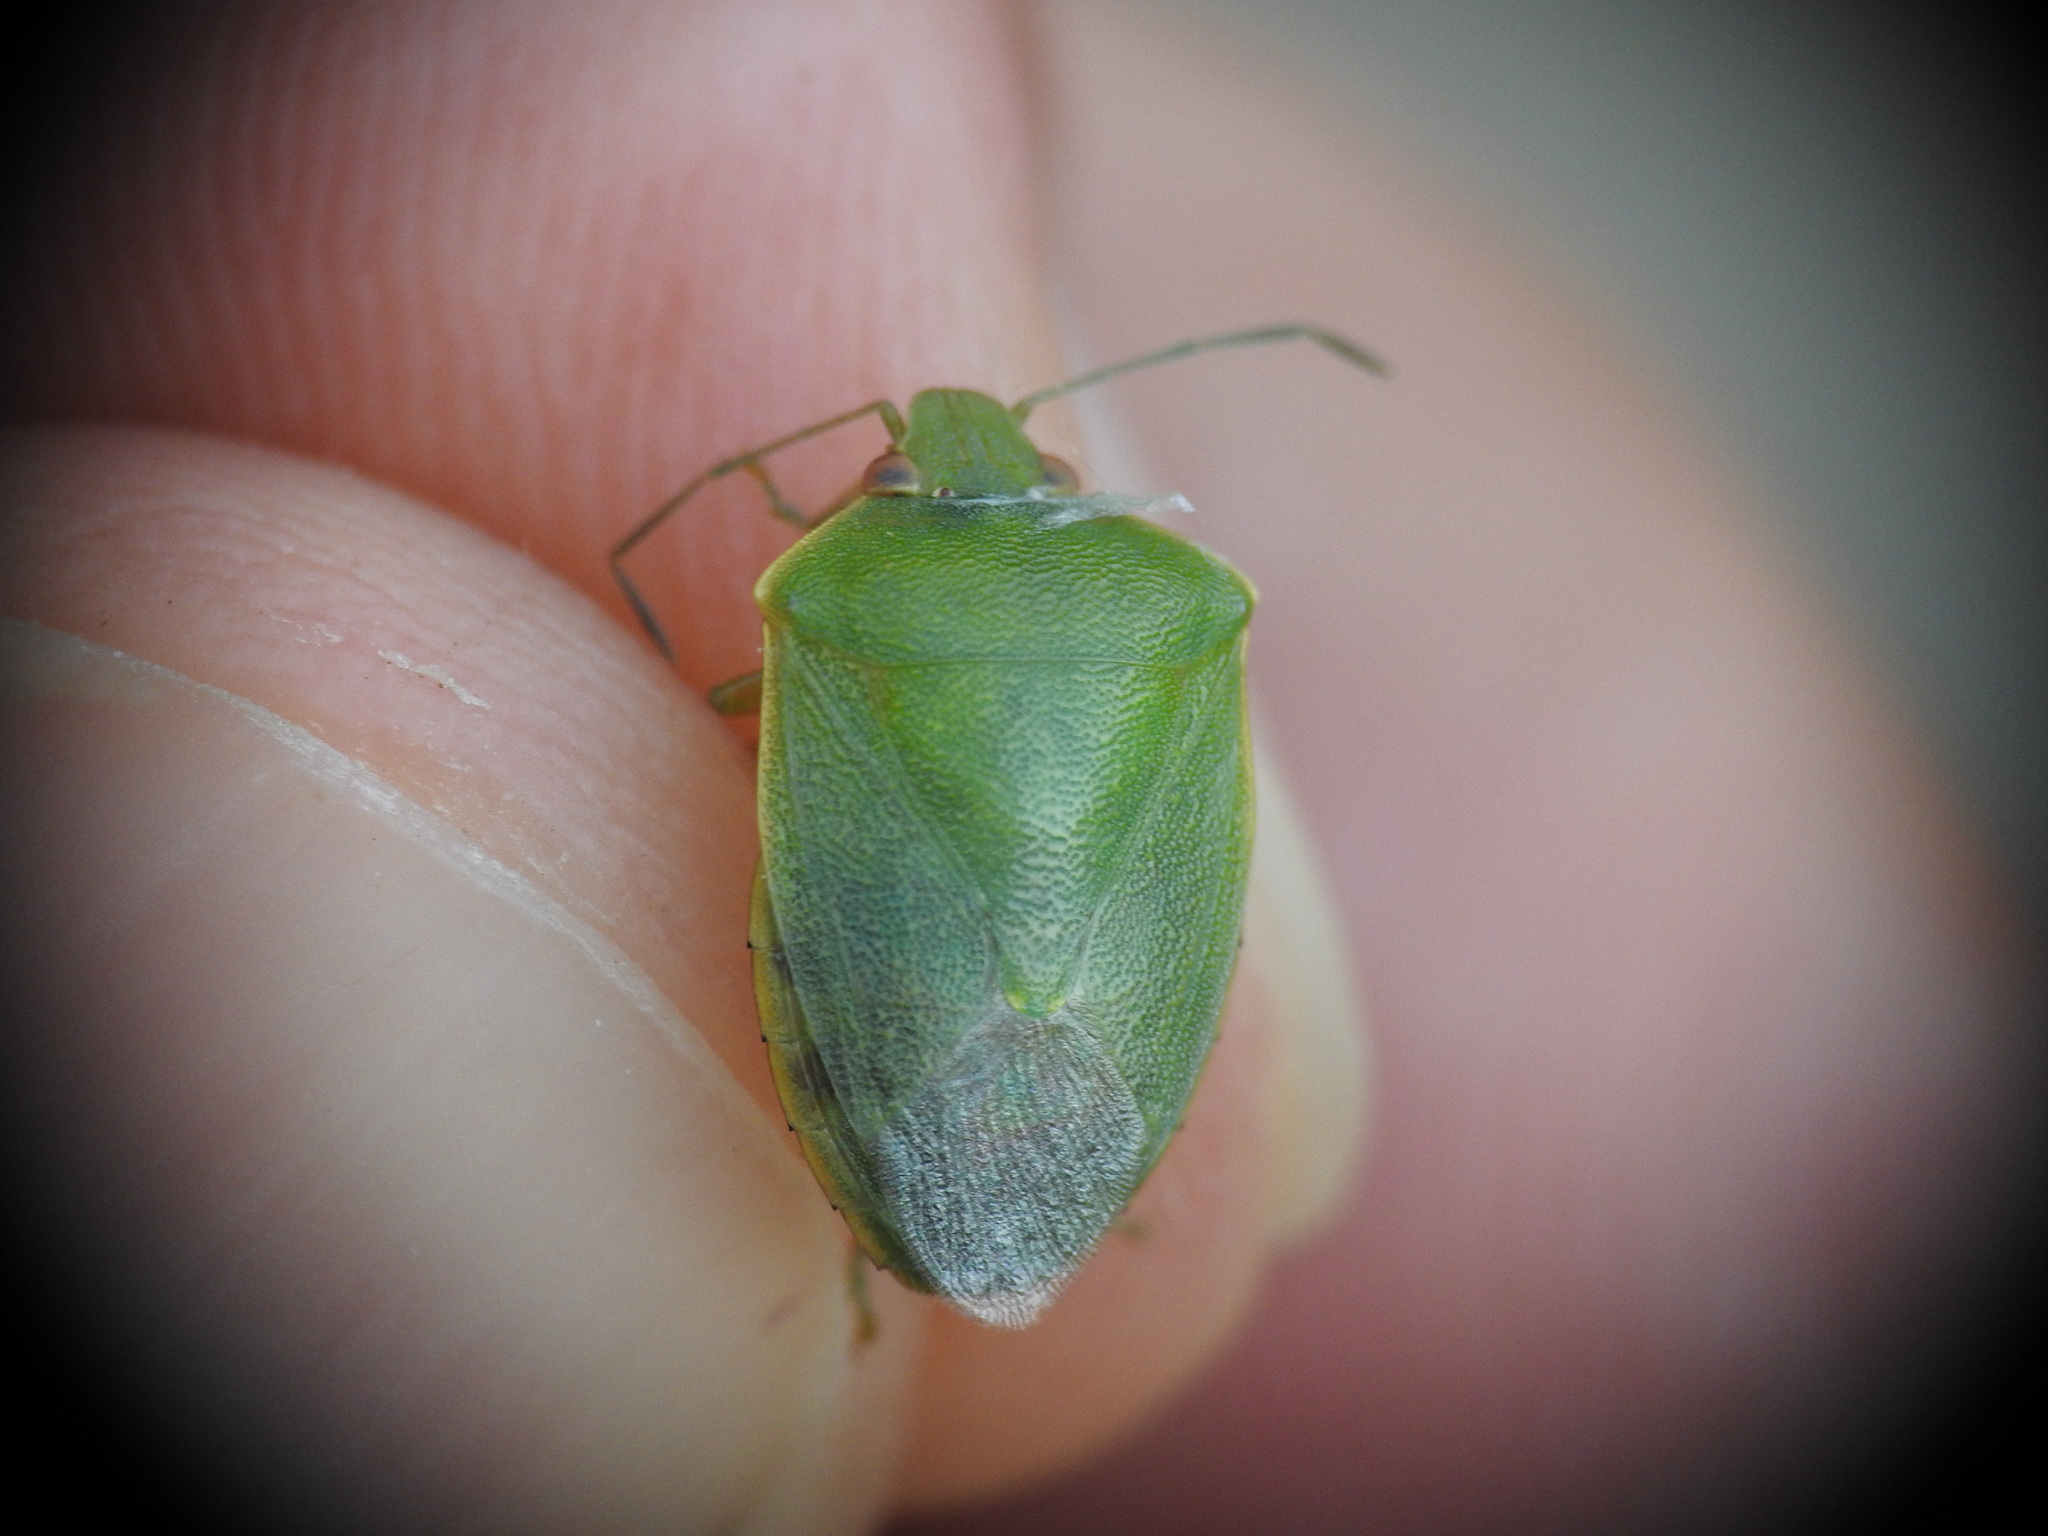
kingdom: Animalia
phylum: Arthropoda
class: Insecta
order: Hemiptera
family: Pentatomidae
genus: Acrosternum
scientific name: Acrosternum millierei
